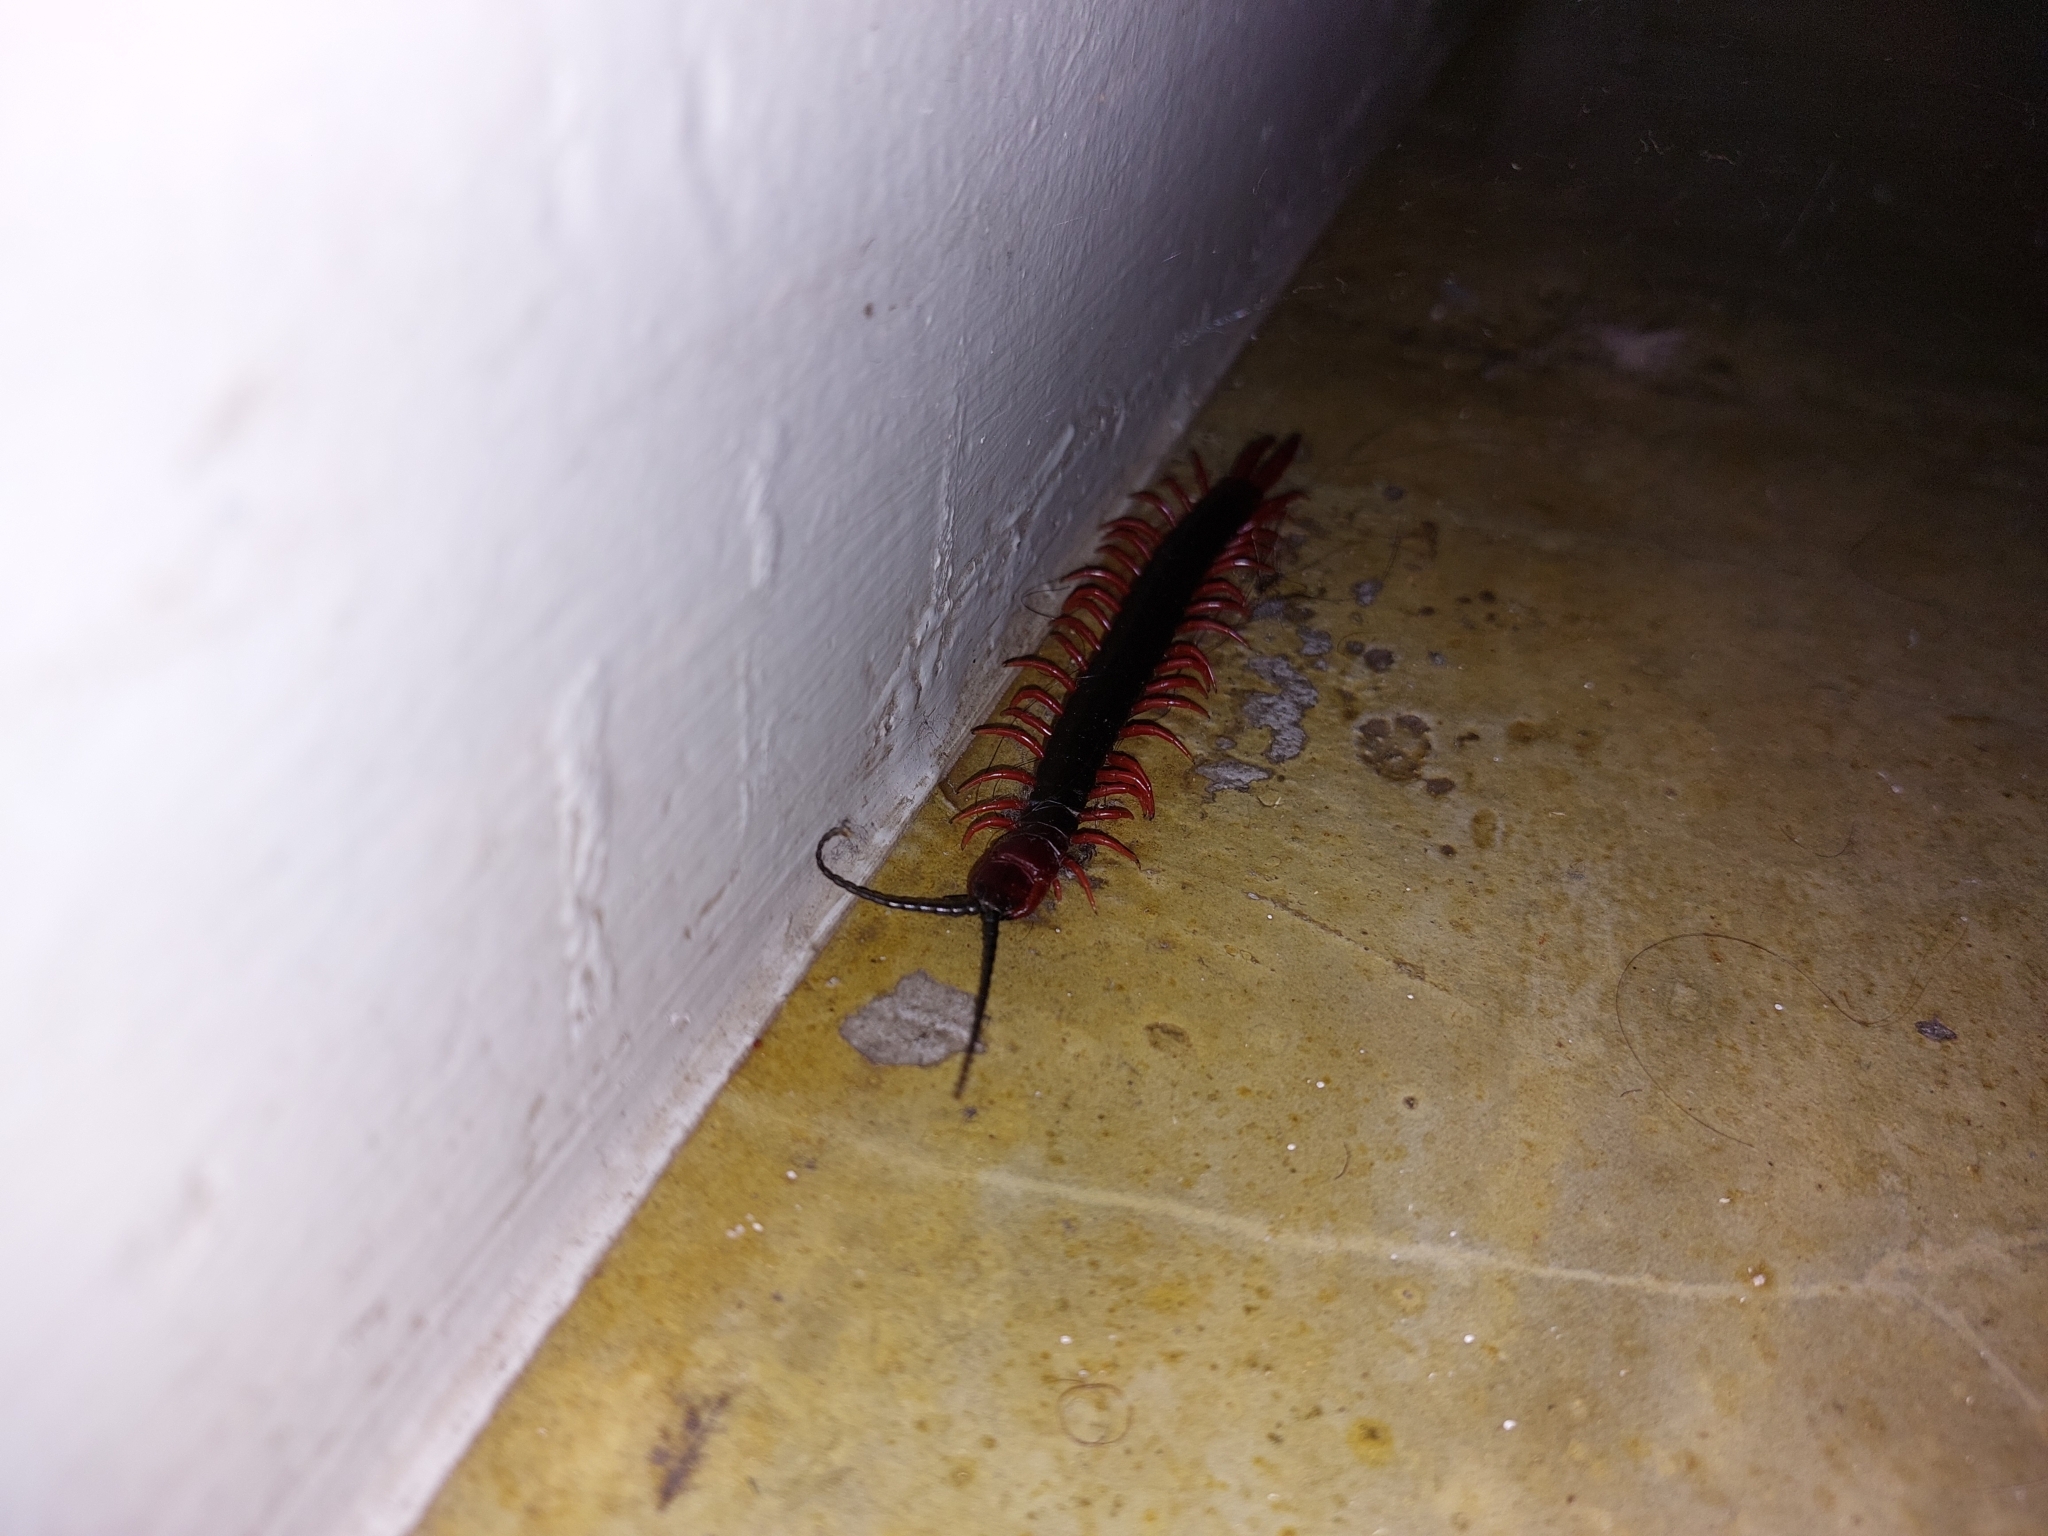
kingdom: Animalia
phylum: Arthropoda
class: Chilopoda
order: Scolopendromorpha
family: Scolopendridae
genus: Cormocephalus
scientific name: Cormocephalus nitidus
